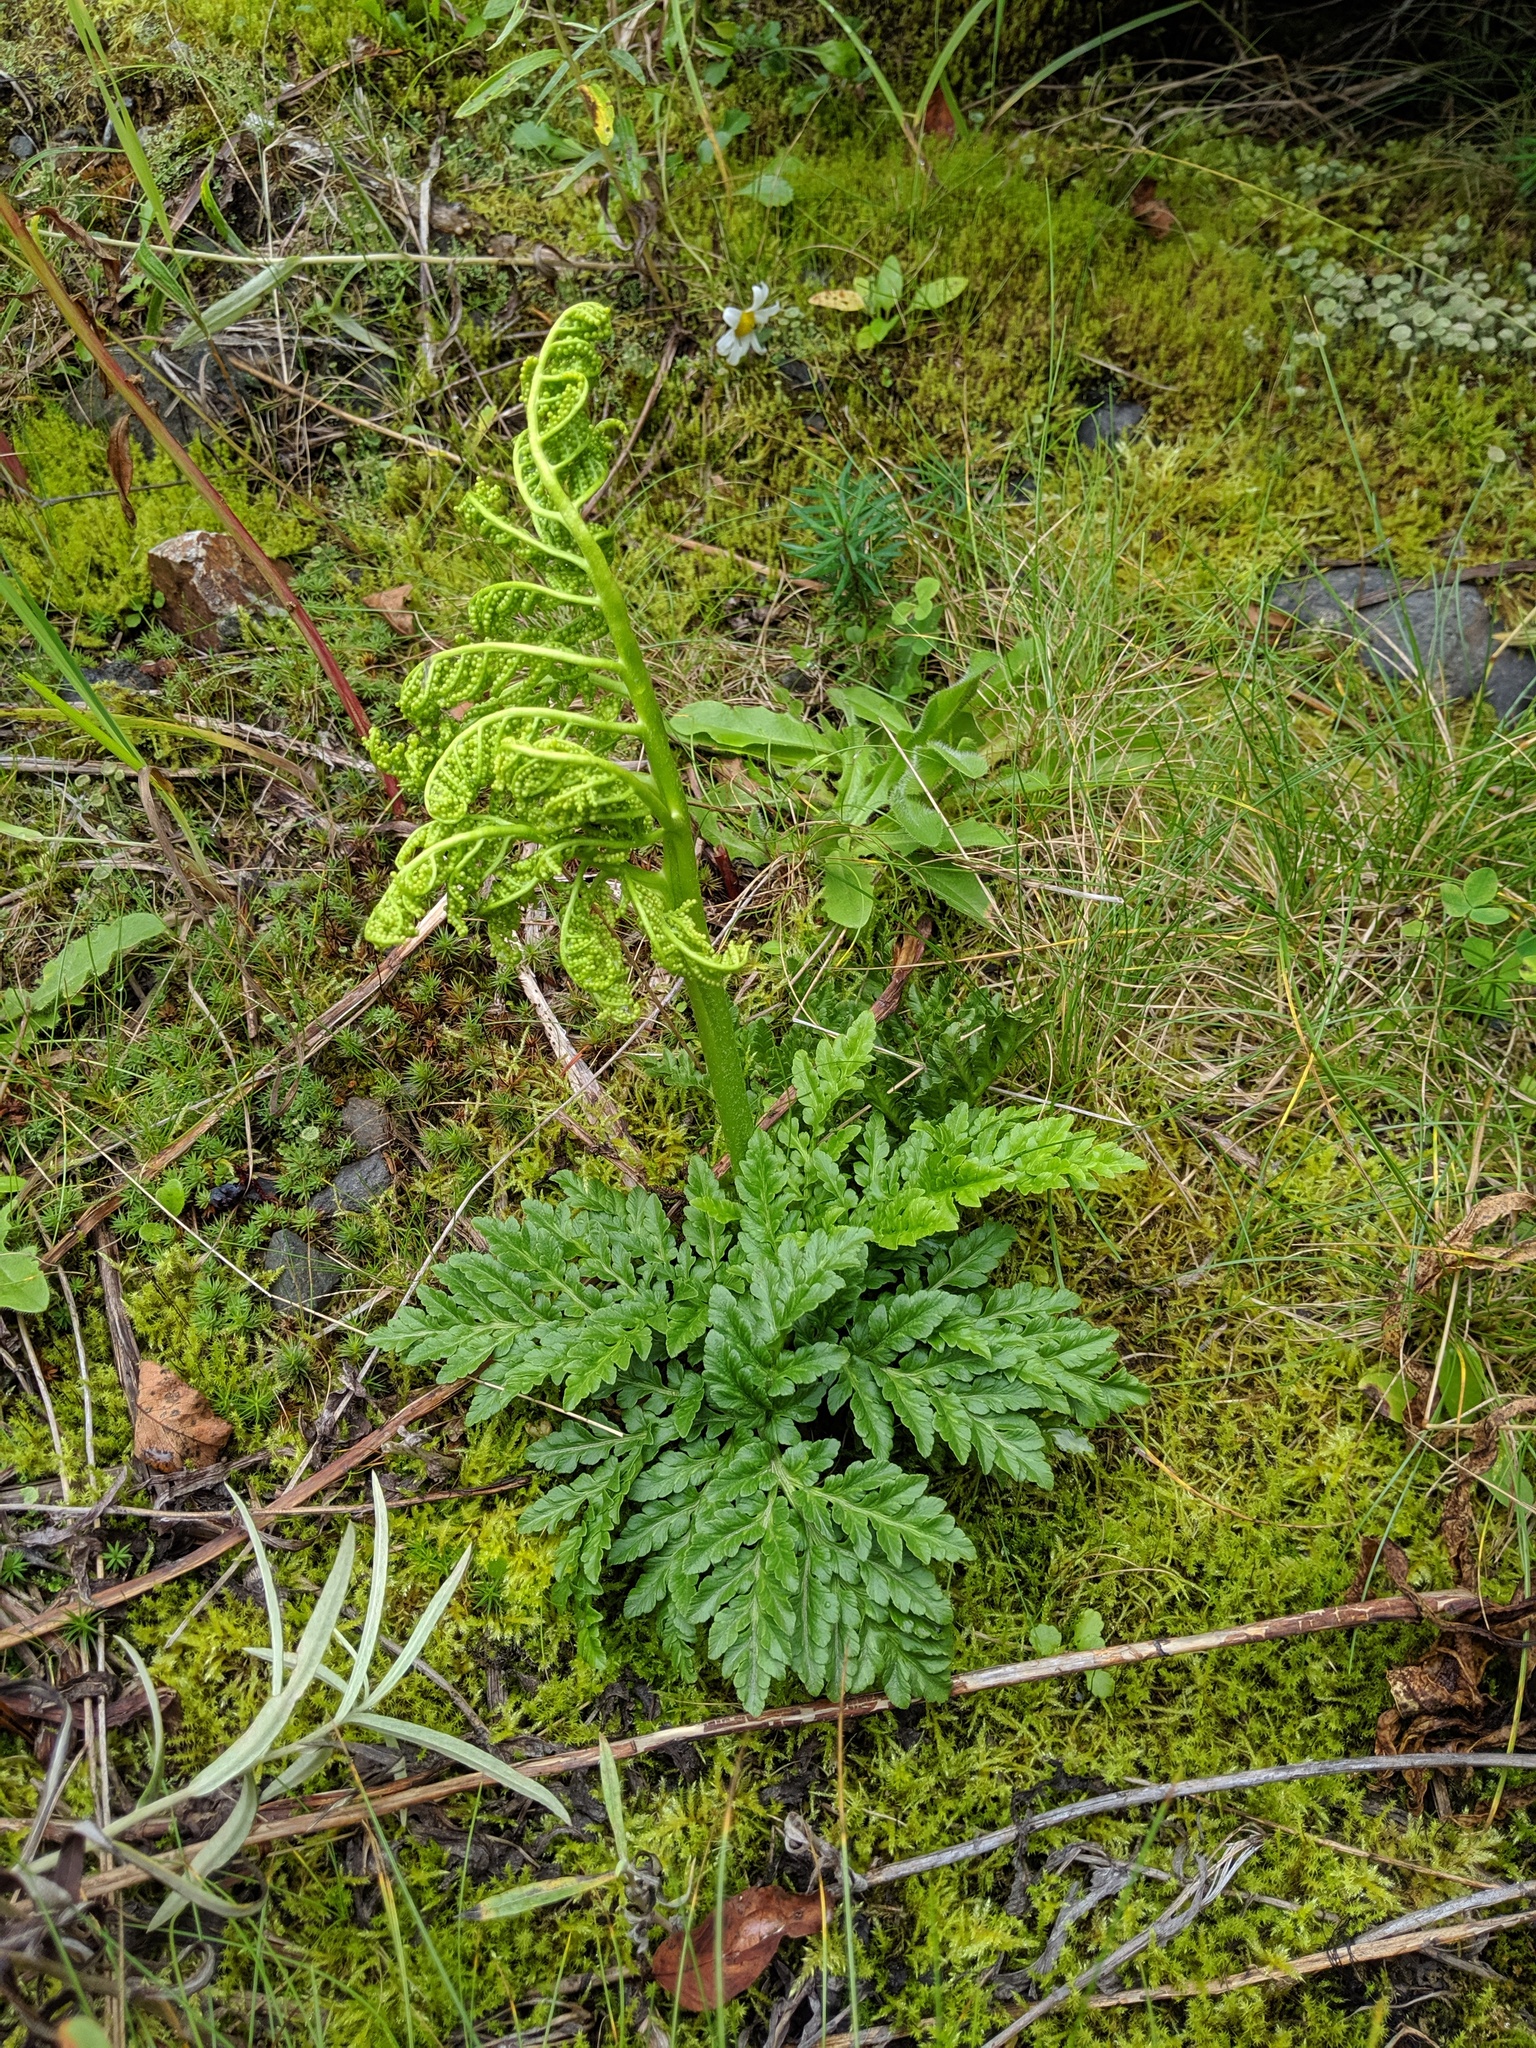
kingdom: Plantae
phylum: Tracheophyta
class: Polypodiopsida
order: Ophioglossales
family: Ophioglossaceae
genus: Sceptridium
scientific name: Sceptridium multifidum
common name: Leathery grape fern
